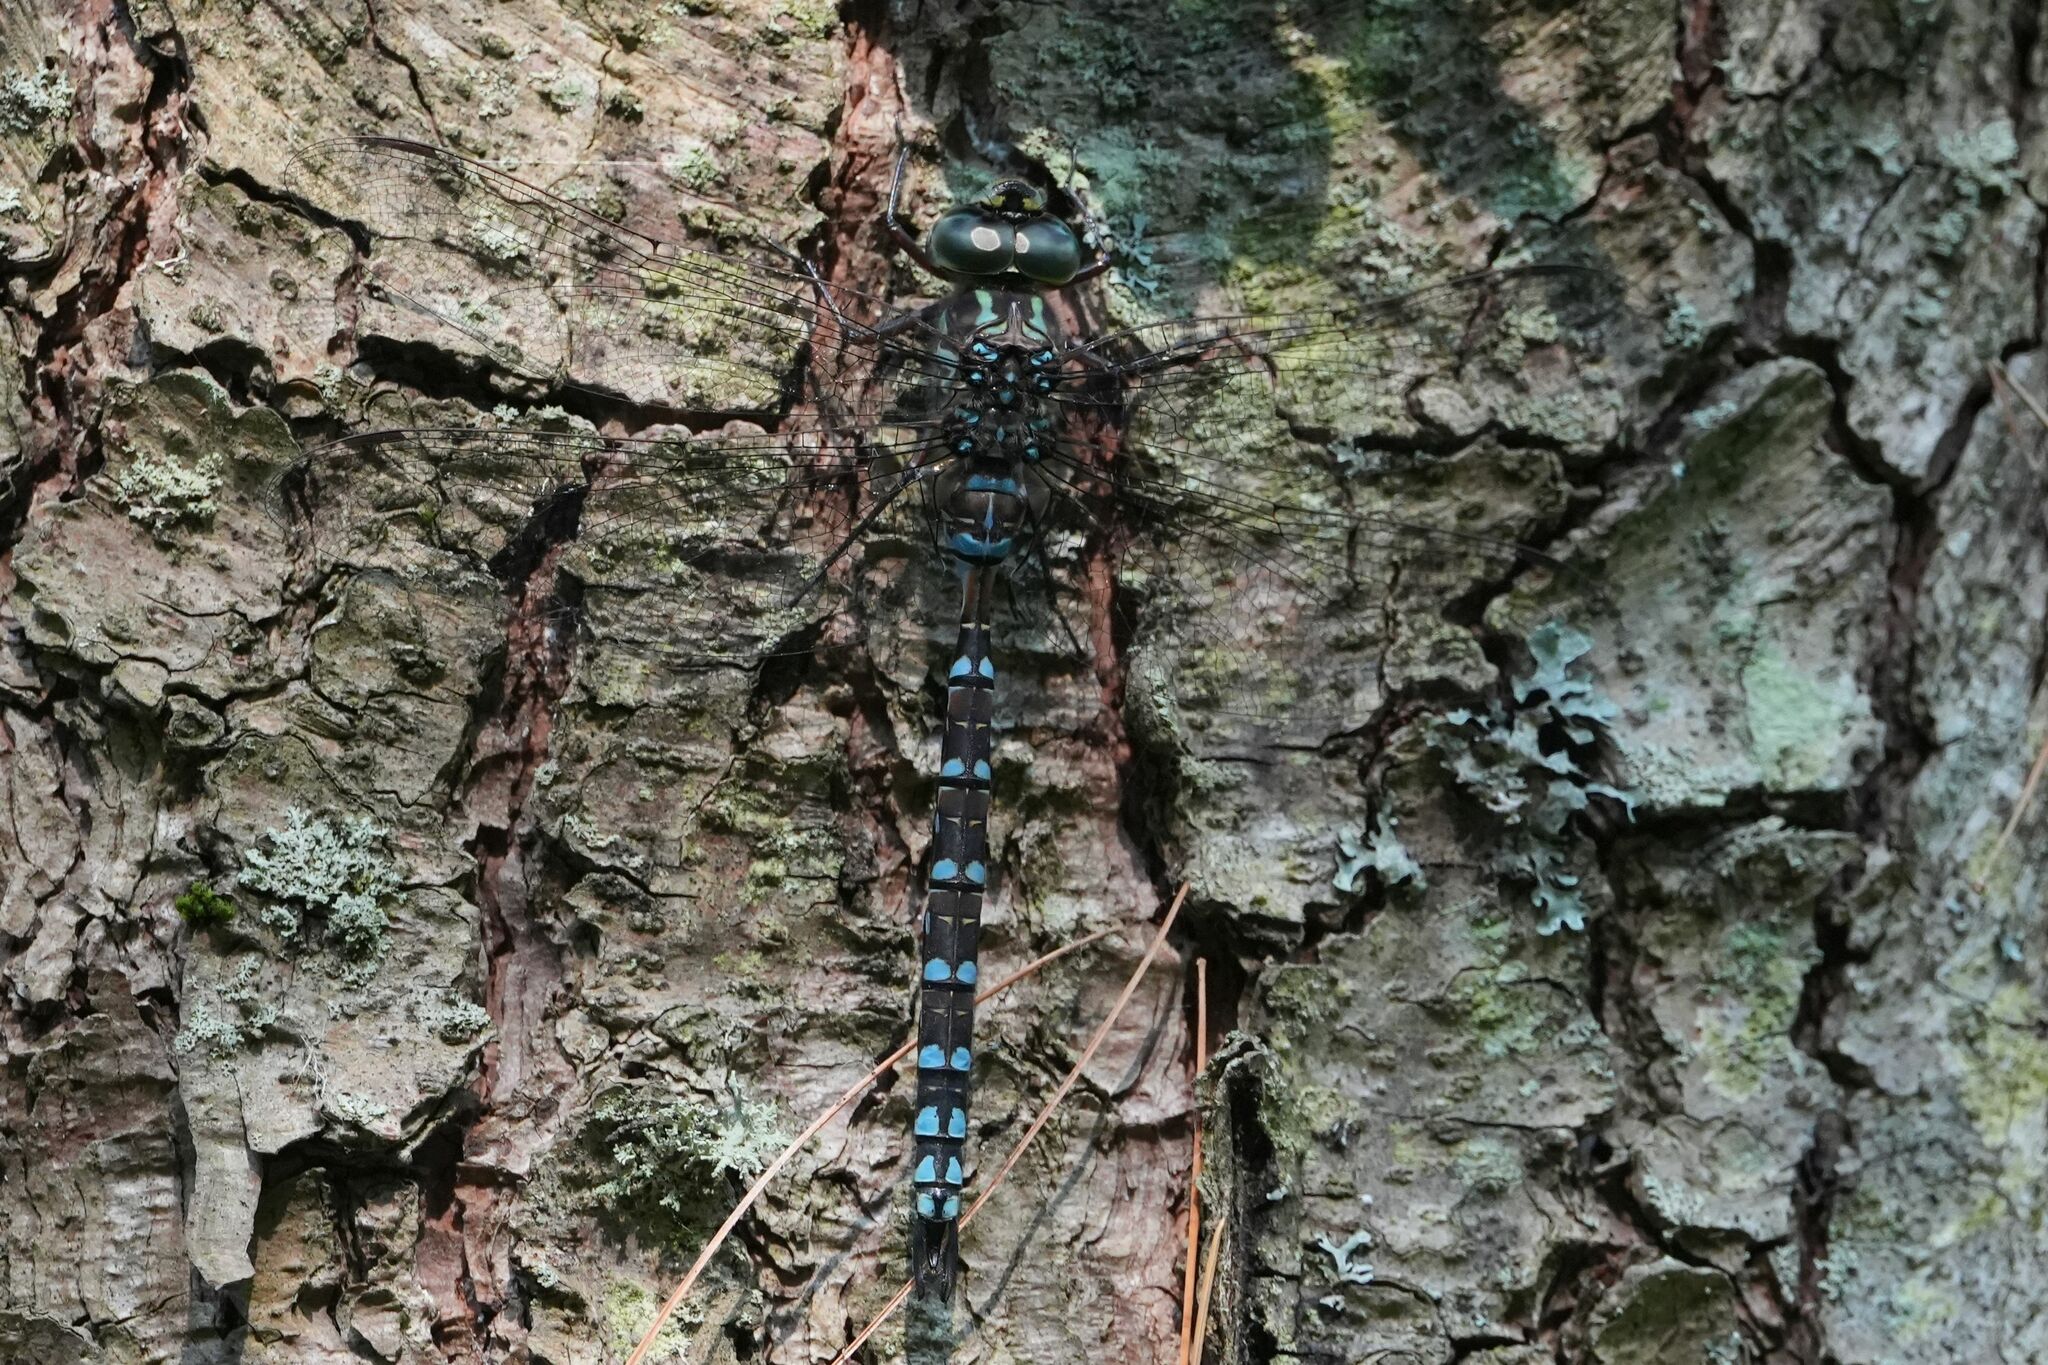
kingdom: Animalia
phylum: Arthropoda
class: Insecta
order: Odonata
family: Aeshnidae
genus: Aeshna
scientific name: Aeshna canadensis
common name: Canada darner
